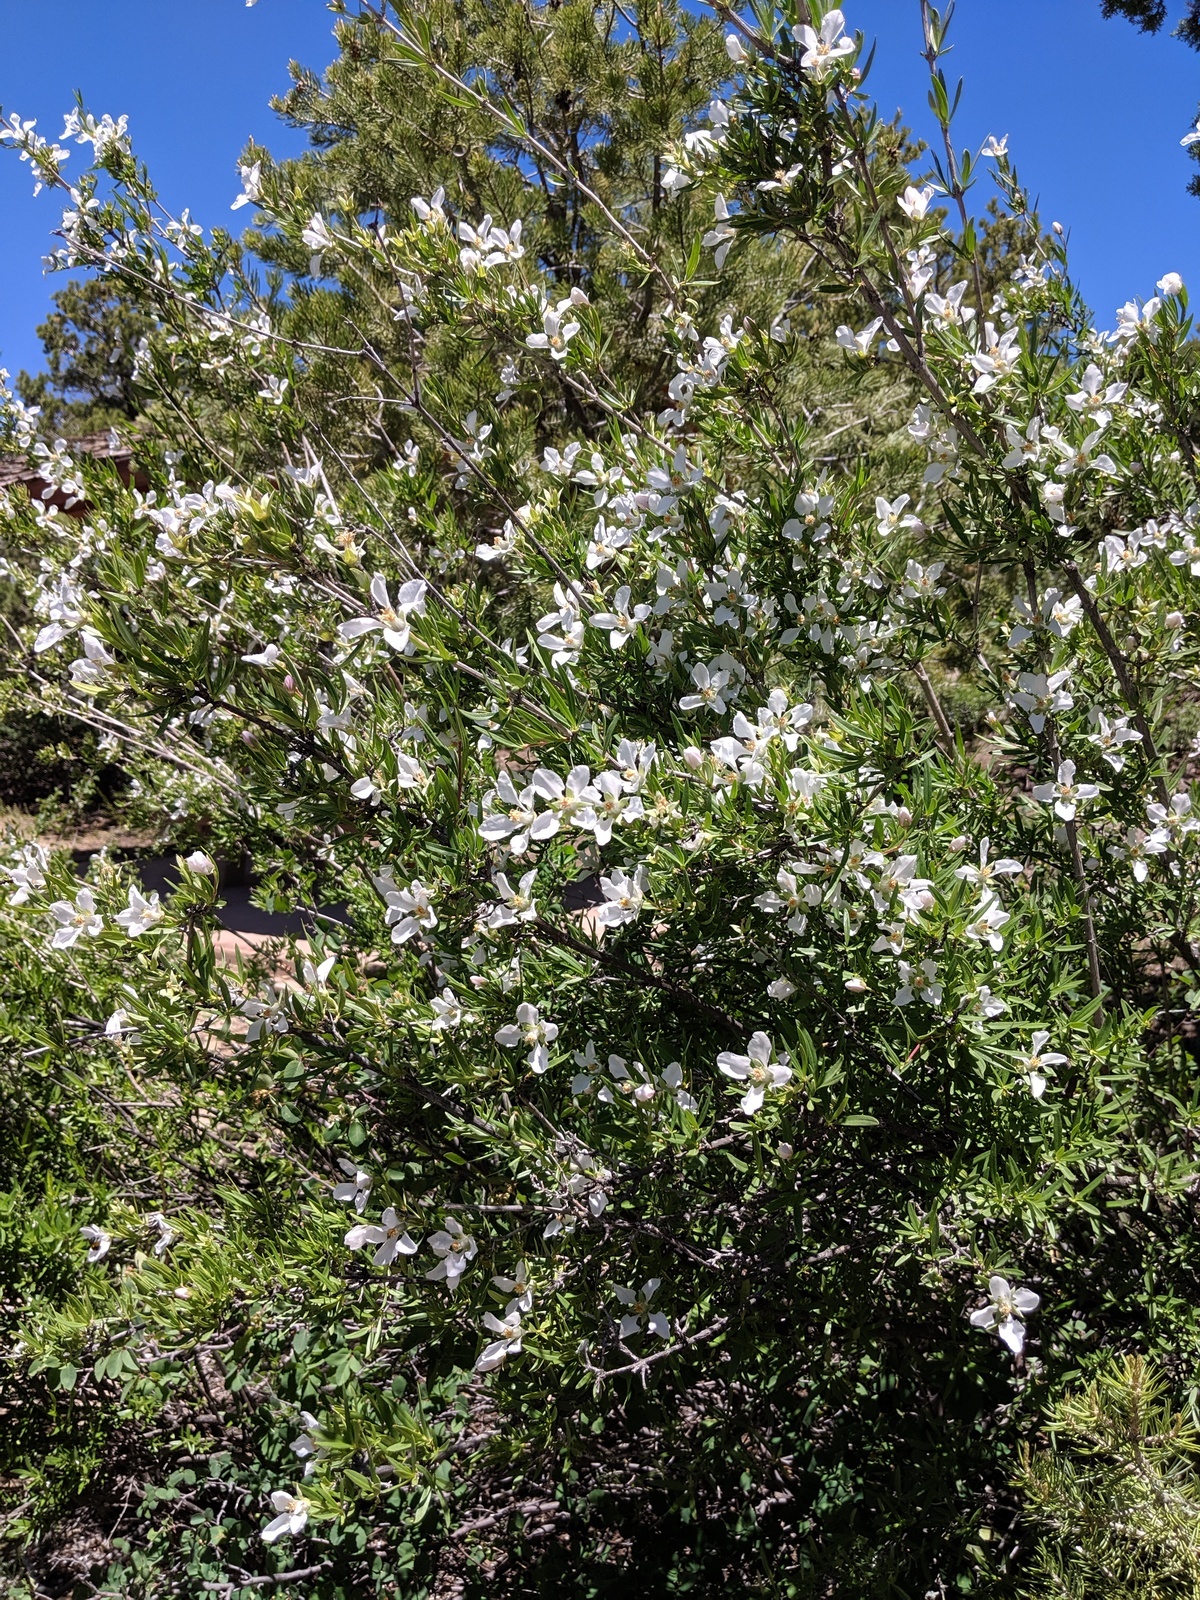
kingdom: Plantae
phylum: Tracheophyta
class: Magnoliopsida
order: Cornales
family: Hydrangeaceae
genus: Fendlera
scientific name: Fendlera rupicola
